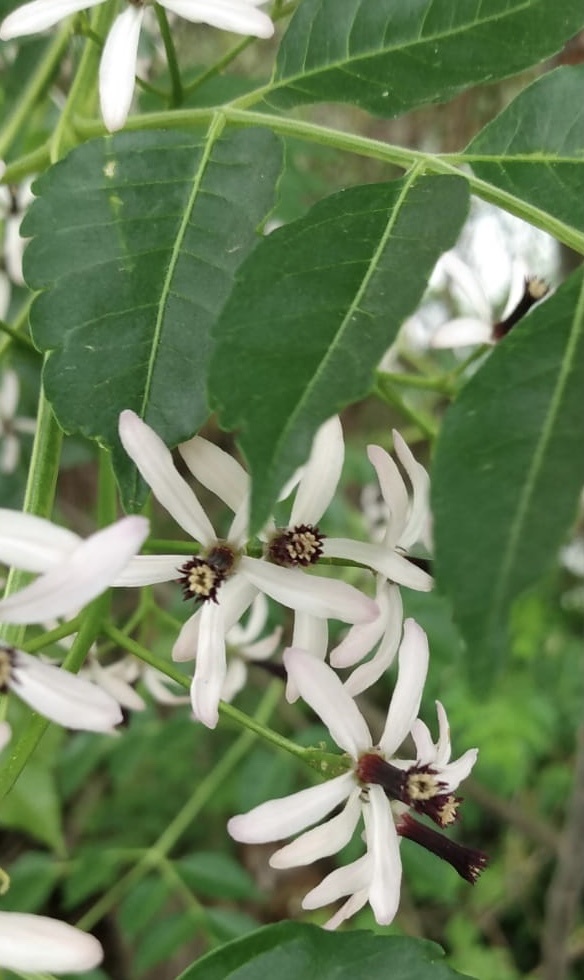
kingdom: Plantae
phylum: Tracheophyta
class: Magnoliopsida
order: Sapindales
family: Meliaceae
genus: Melia
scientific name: Melia azedarach
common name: Chinaberrytree
